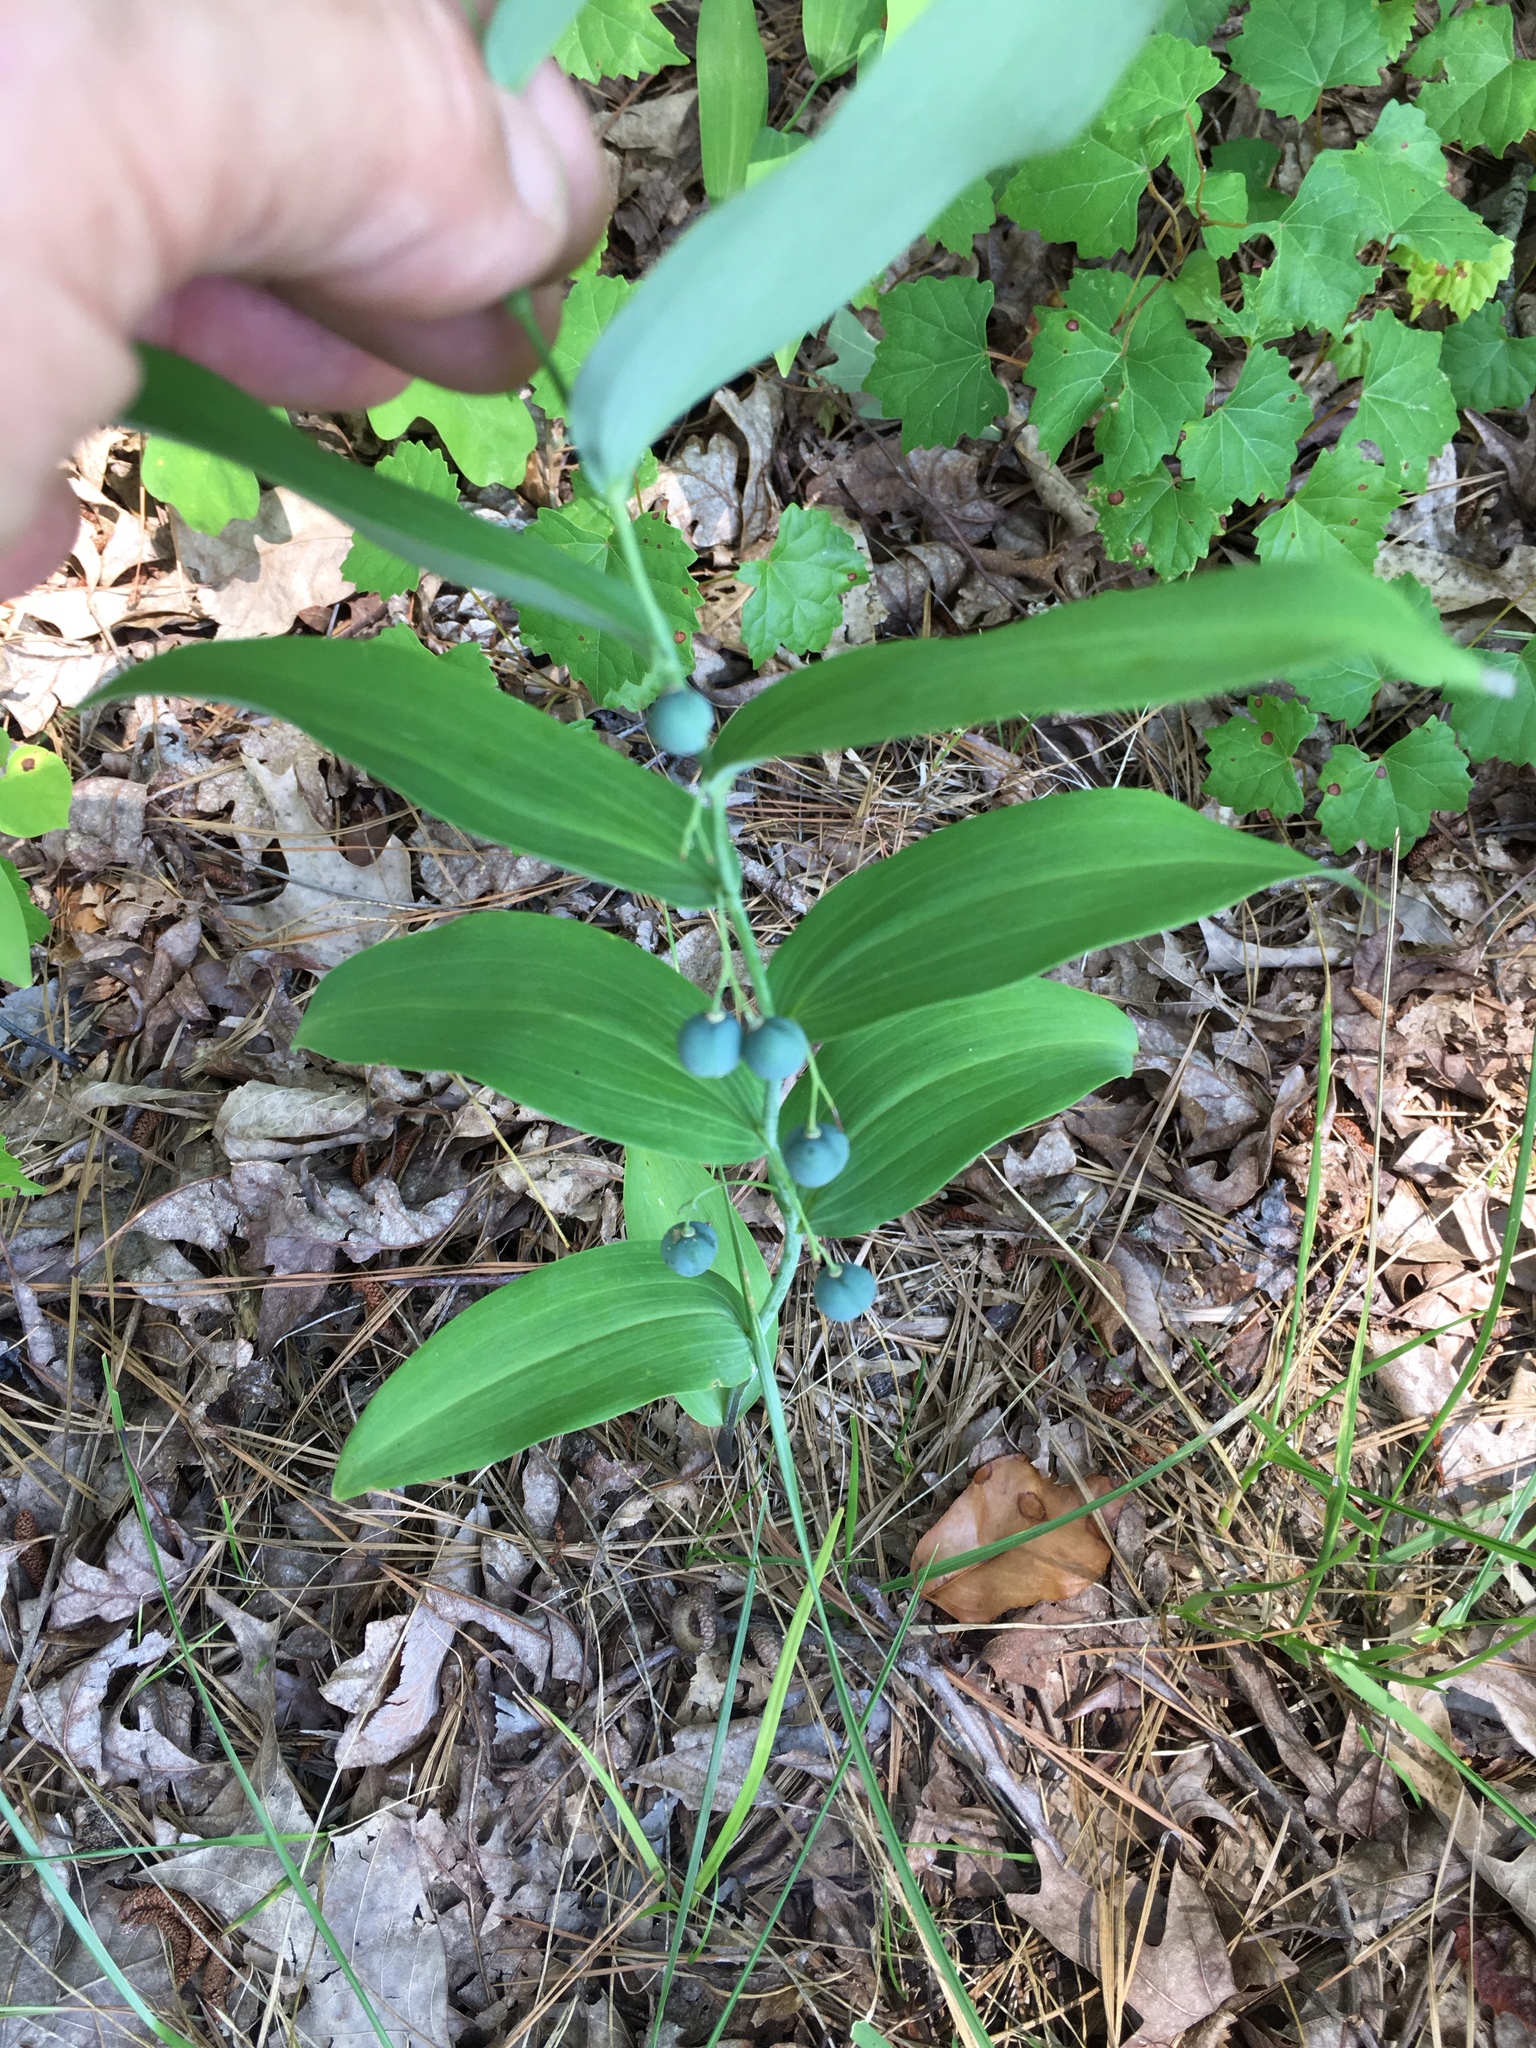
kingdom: Plantae
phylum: Tracheophyta
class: Liliopsida
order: Asparagales
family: Asparagaceae
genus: Polygonatum
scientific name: Polygonatum biflorum
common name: American solomon's-seal
